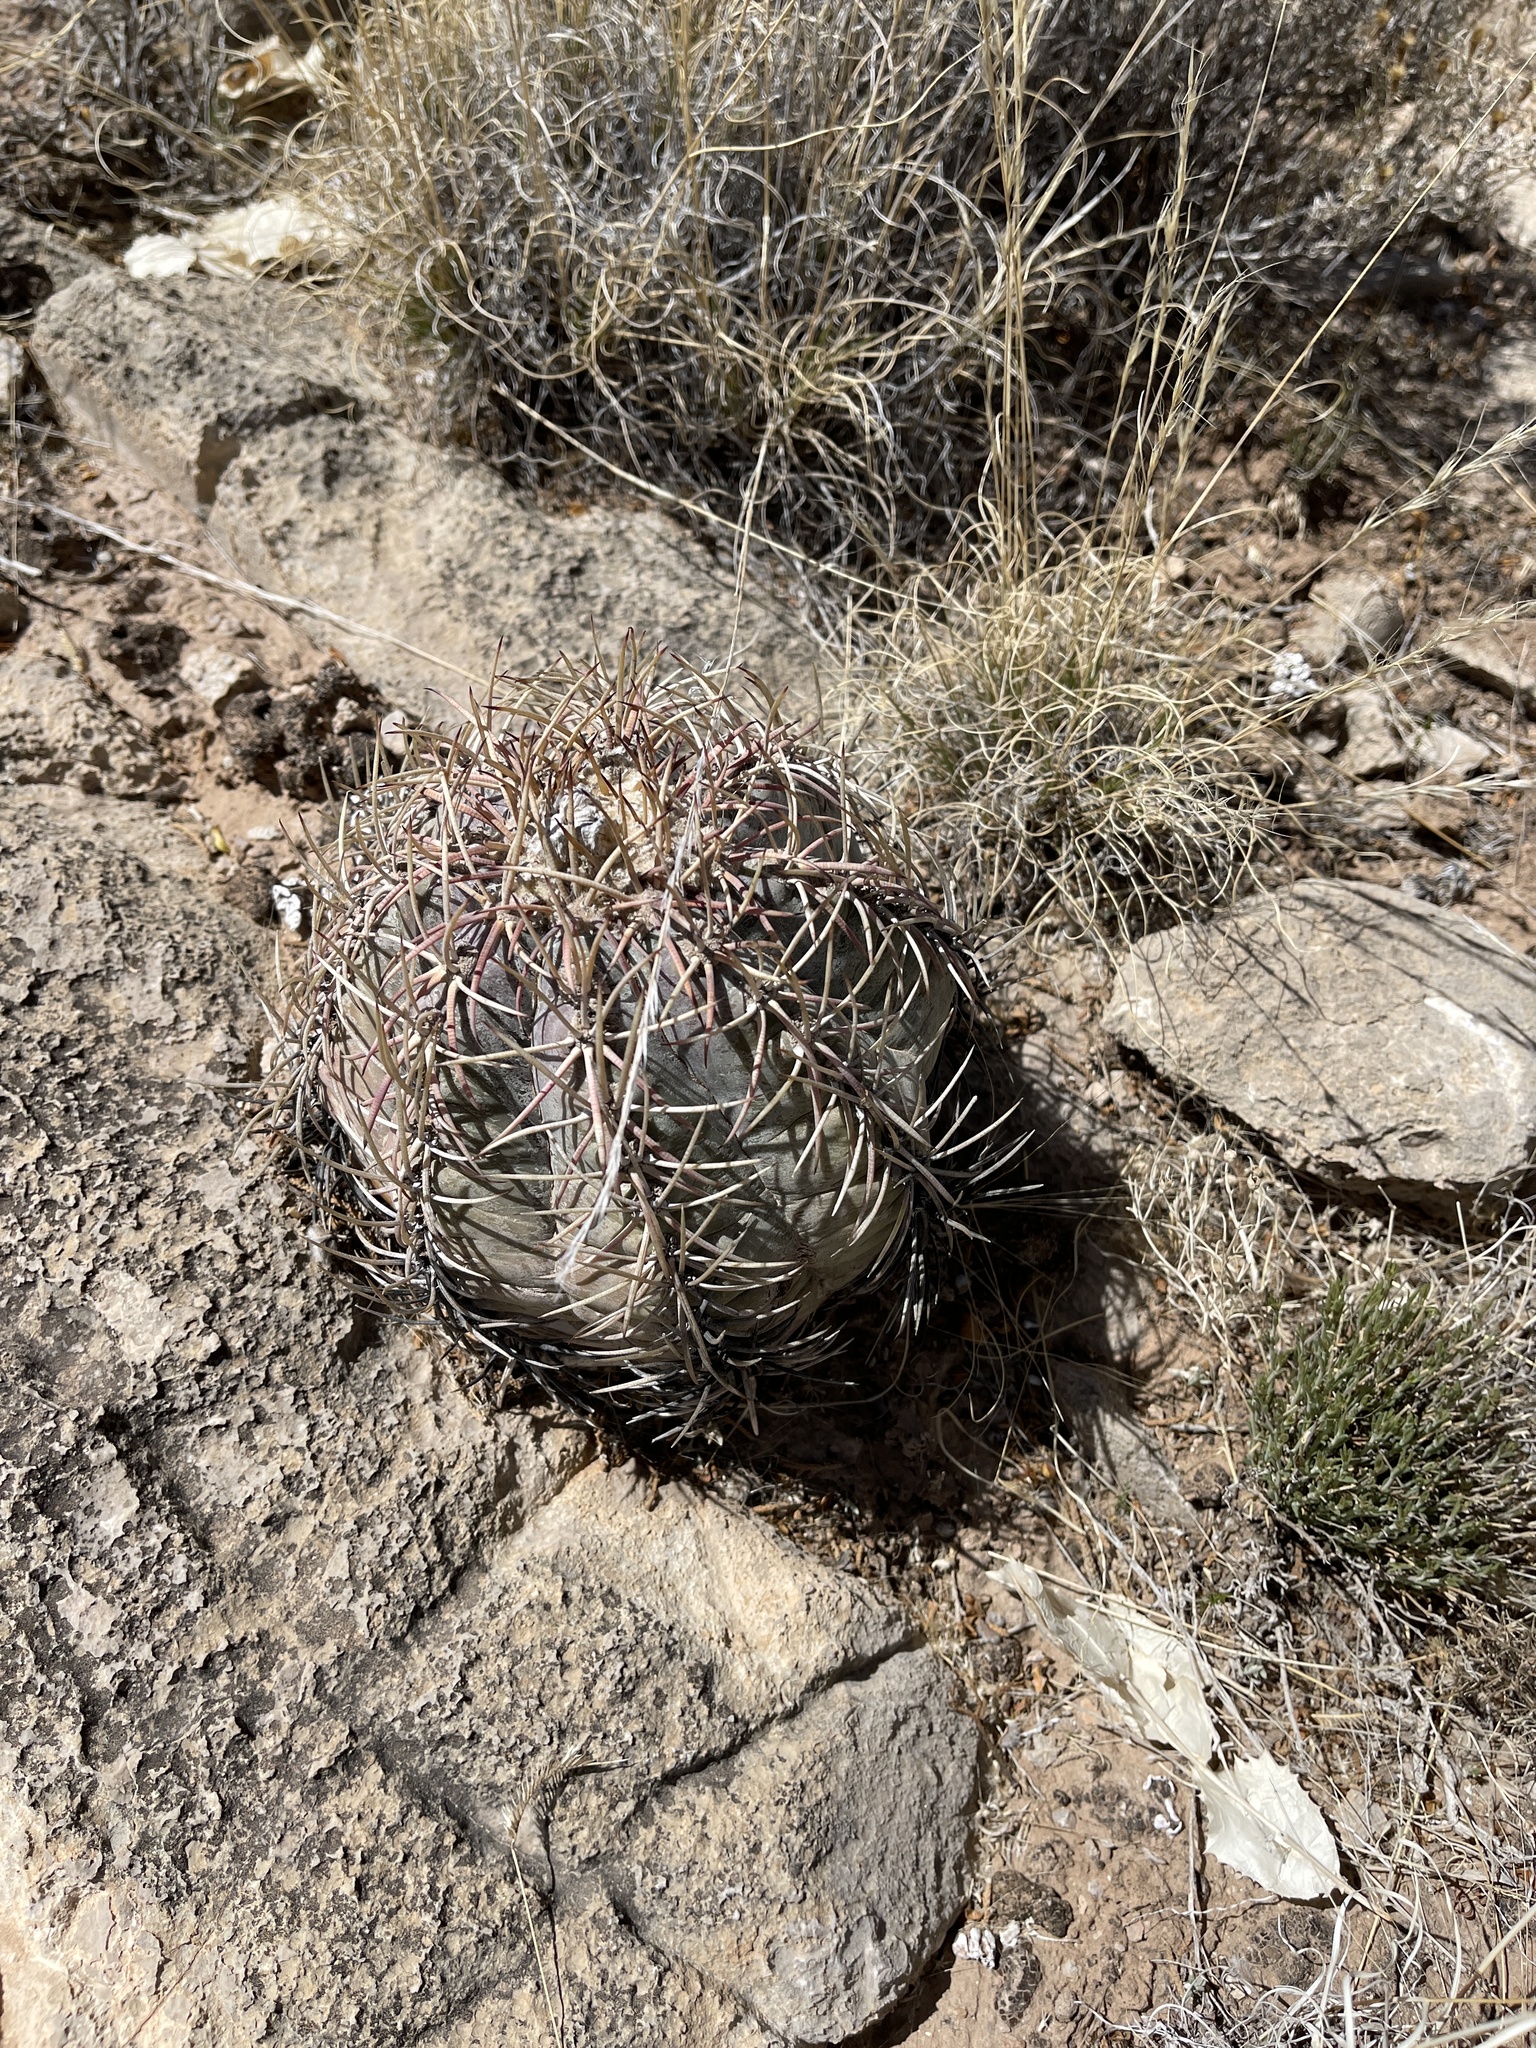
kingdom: Plantae
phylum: Tracheophyta
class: Magnoliopsida
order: Caryophyllales
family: Cactaceae
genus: Echinocactus
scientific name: Echinocactus horizonthalonius
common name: Devilshead
